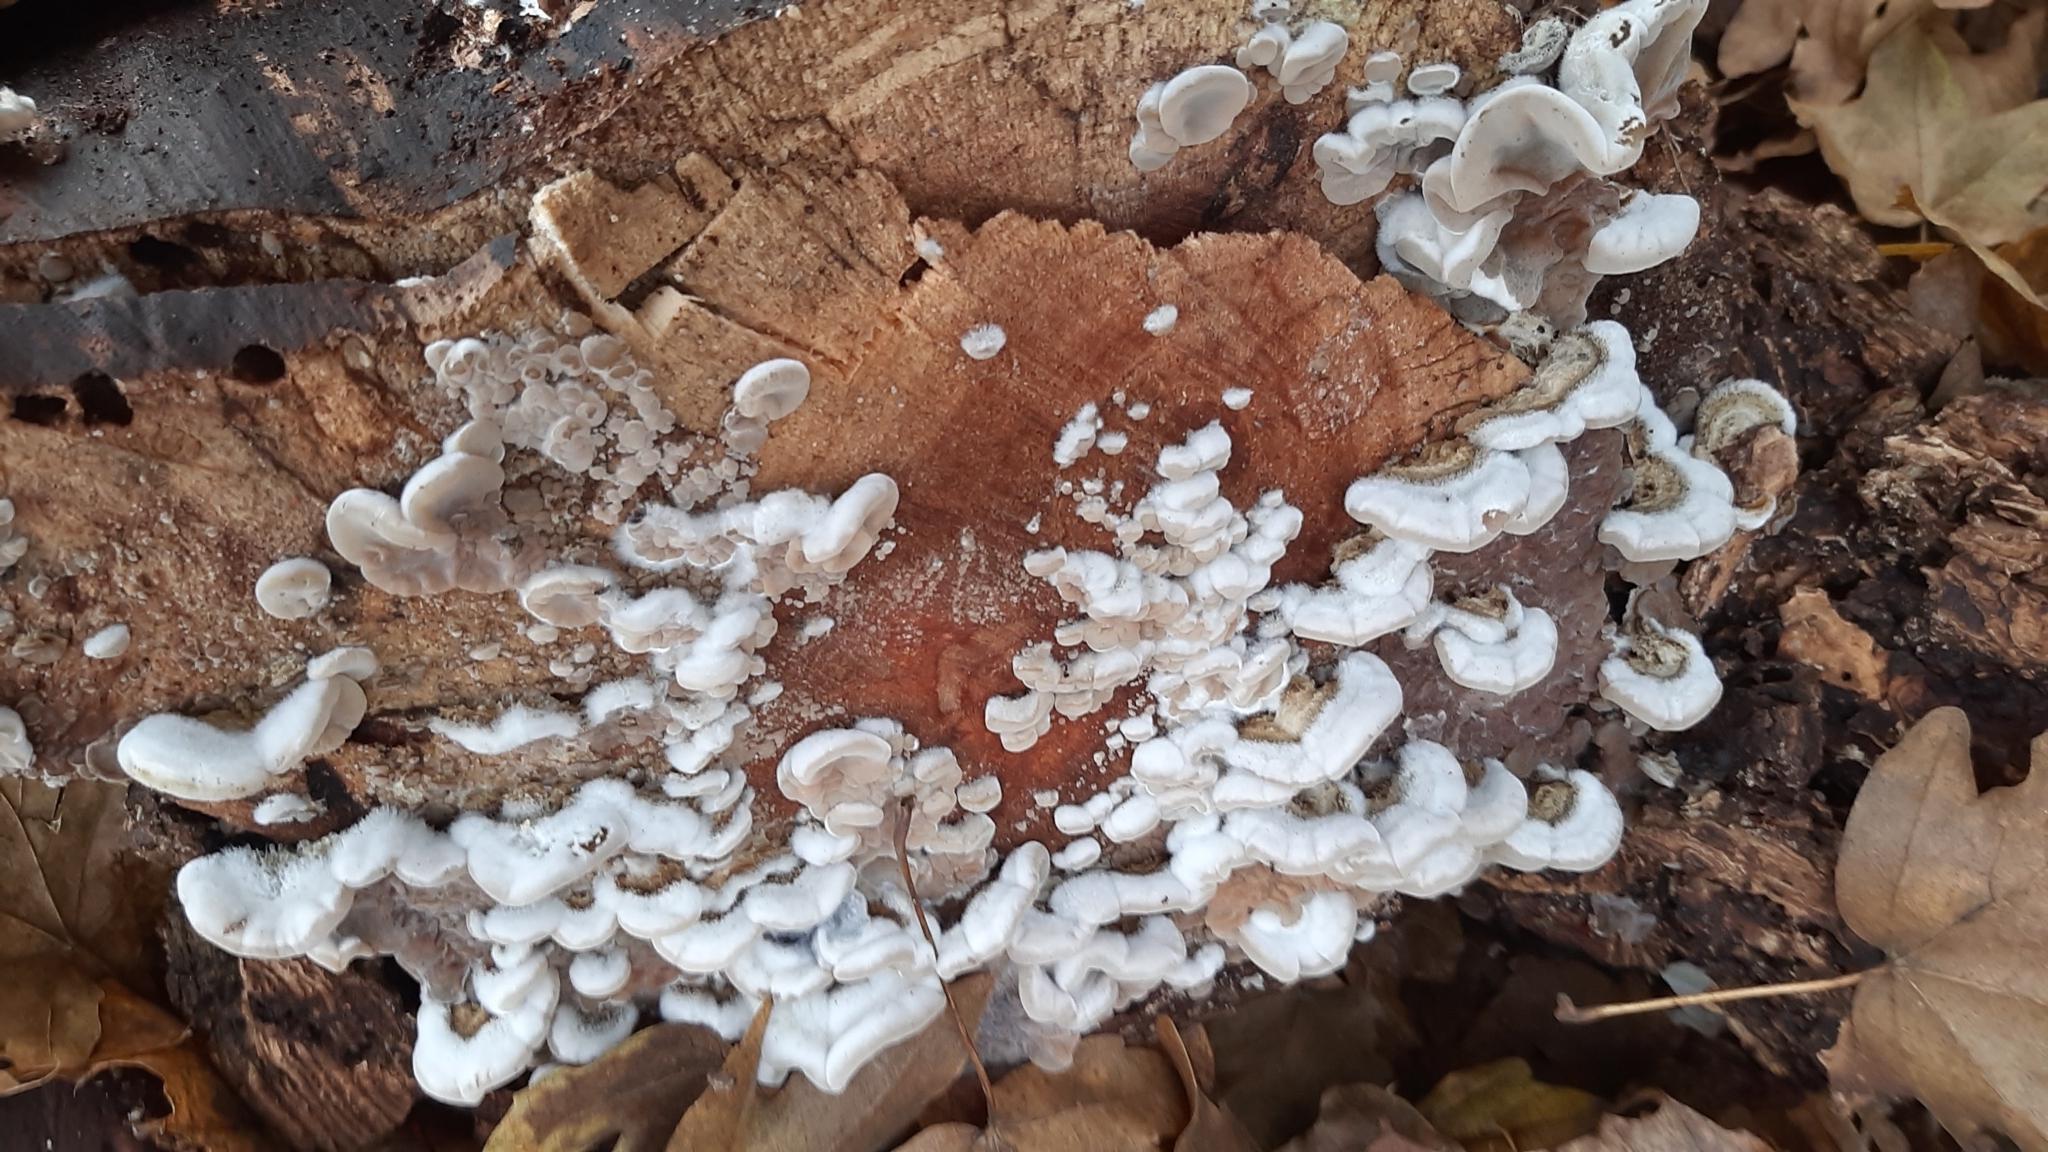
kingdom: Fungi
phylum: Basidiomycota
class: Agaricomycetes
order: Auriculariales
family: Auriculariaceae
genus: Auricularia
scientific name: Auricularia mesenterica
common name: Tripe fungus
